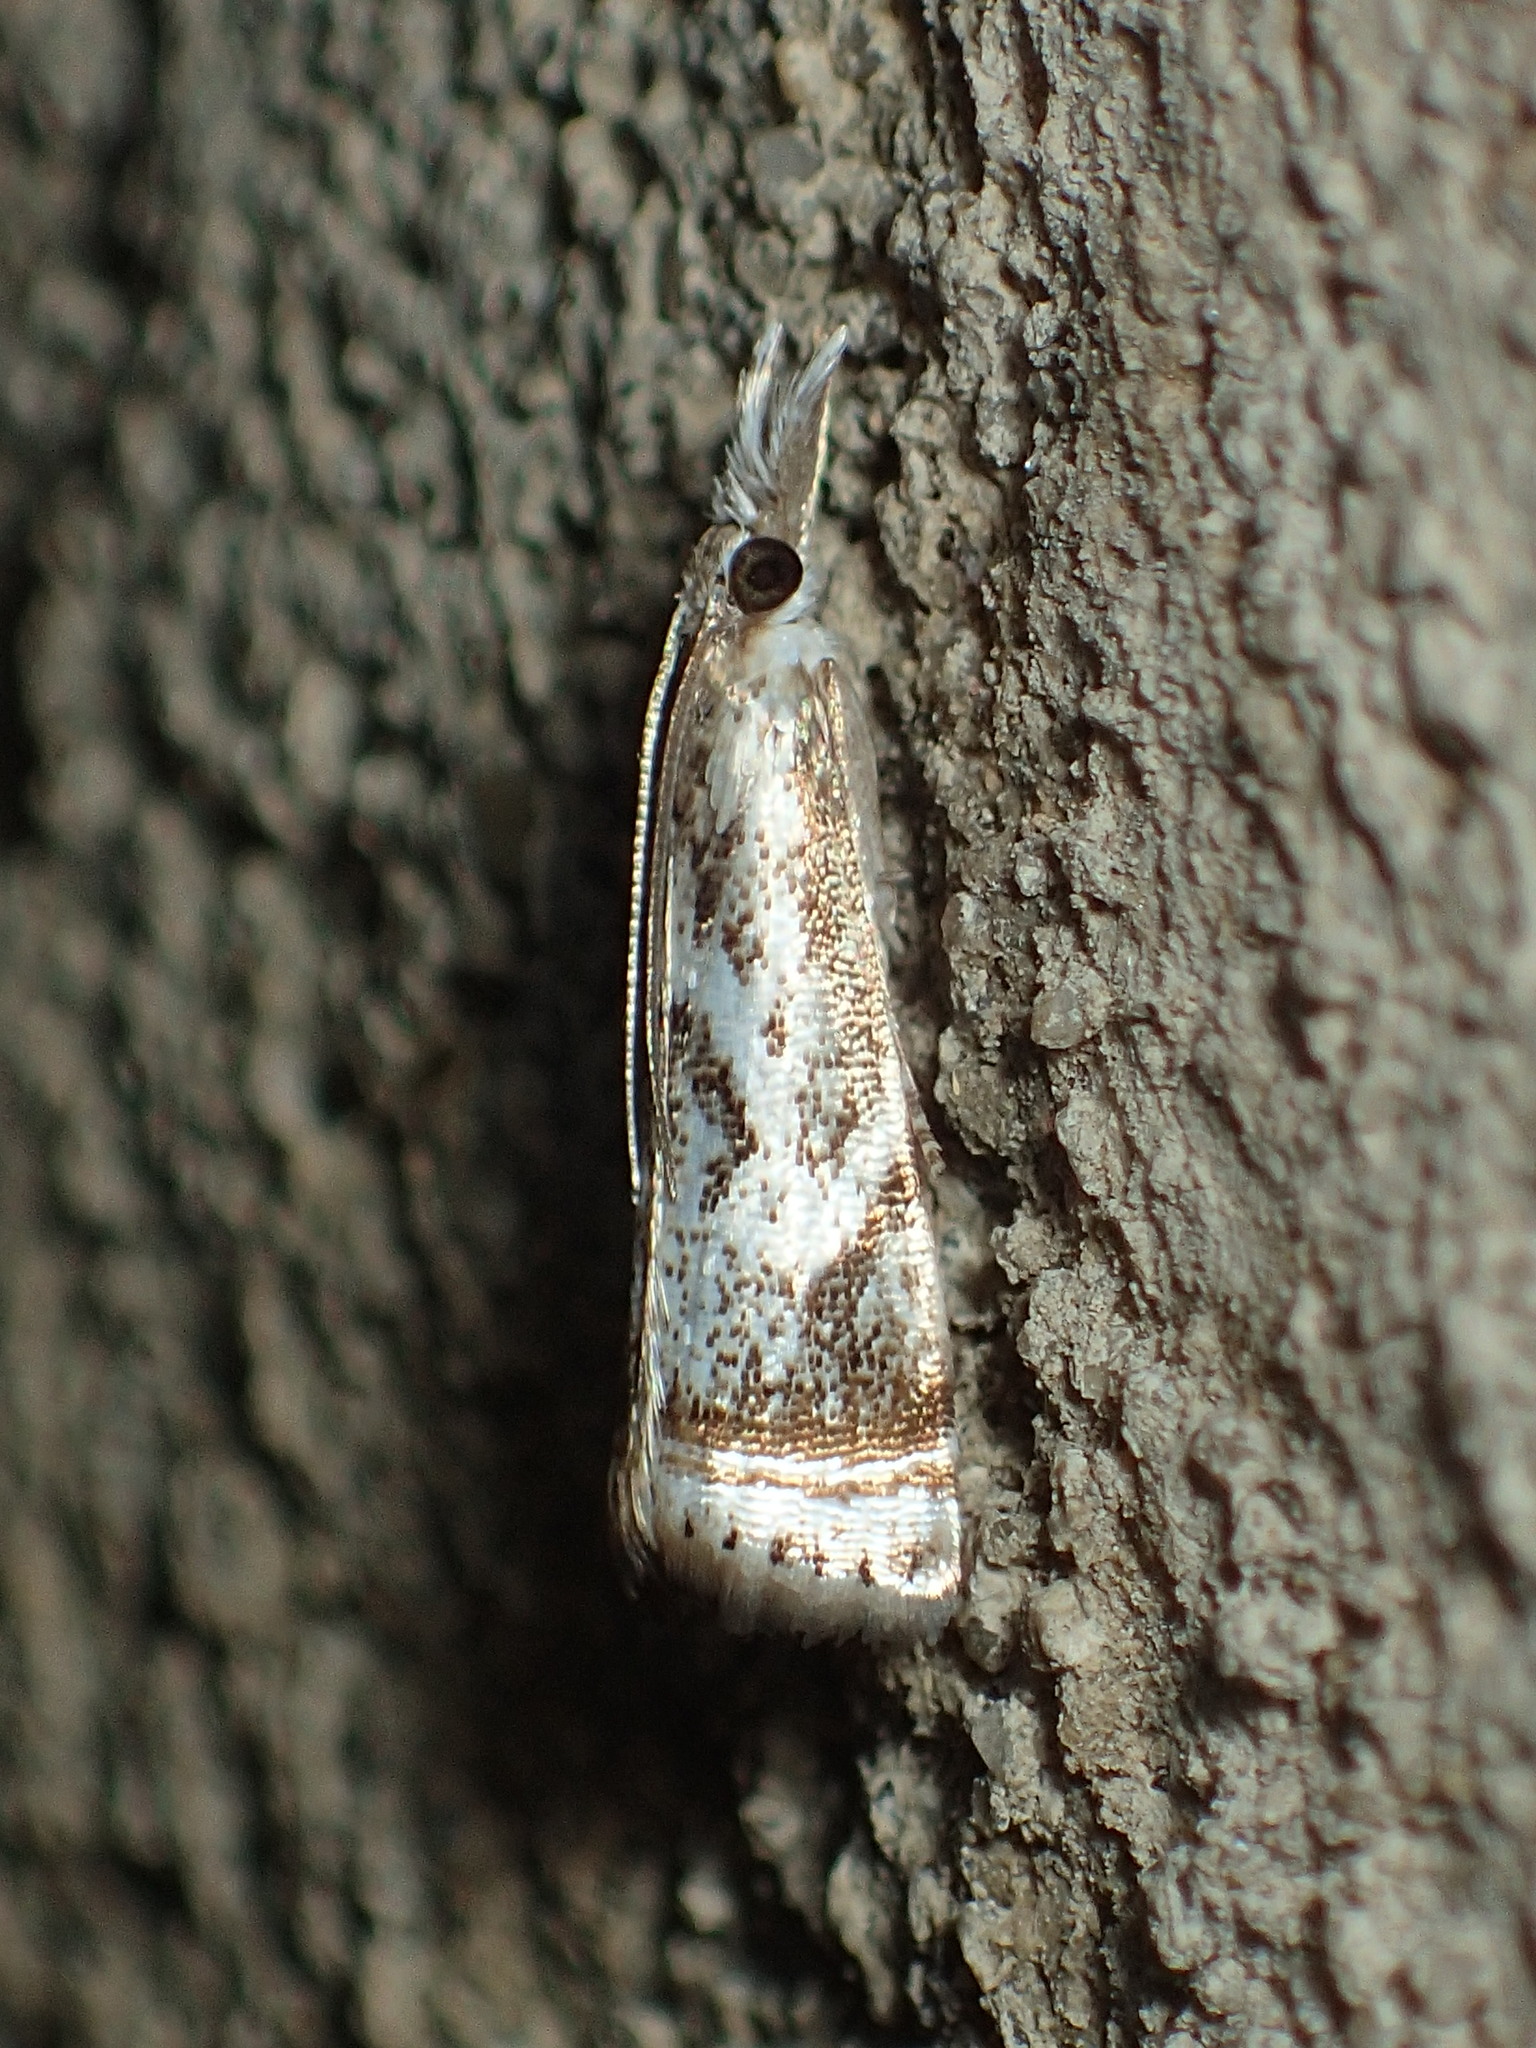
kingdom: Animalia
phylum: Arthropoda
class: Insecta
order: Lepidoptera
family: Crambidae
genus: Microcrambus
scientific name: Microcrambus elegans
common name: Elegant grass-veneer
